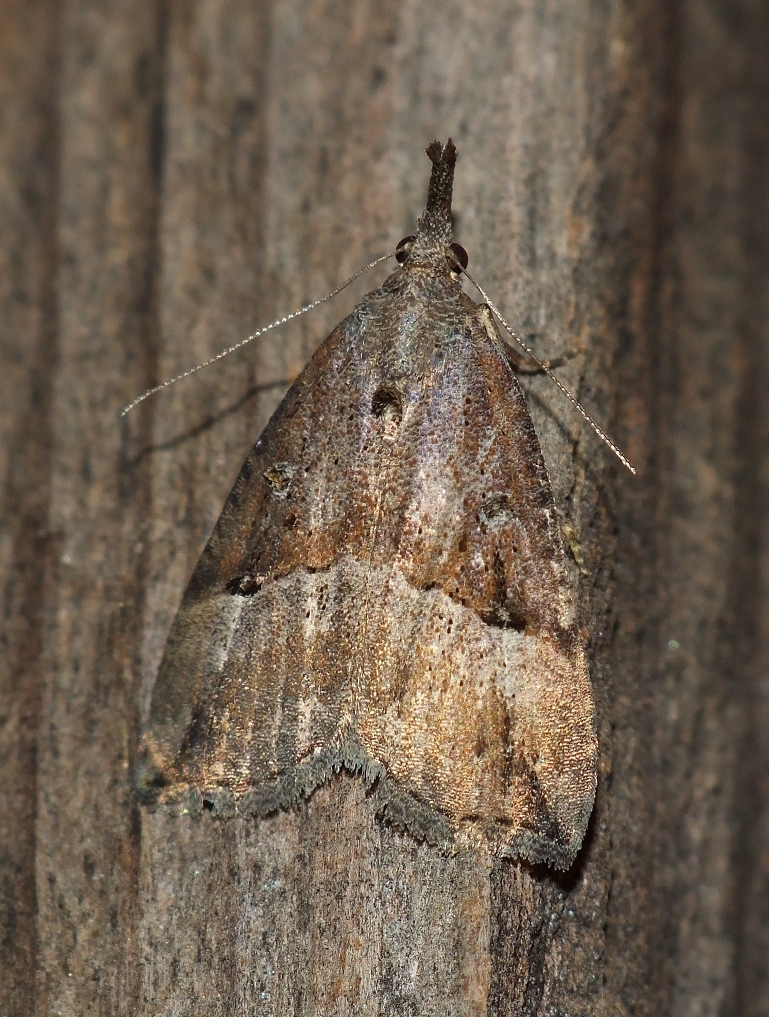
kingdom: Animalia
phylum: Arthropoda
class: Insecta
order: Lepidoptera
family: Erebidae
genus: Hypena
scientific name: Hypena rostralis
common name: Buttoned snout
